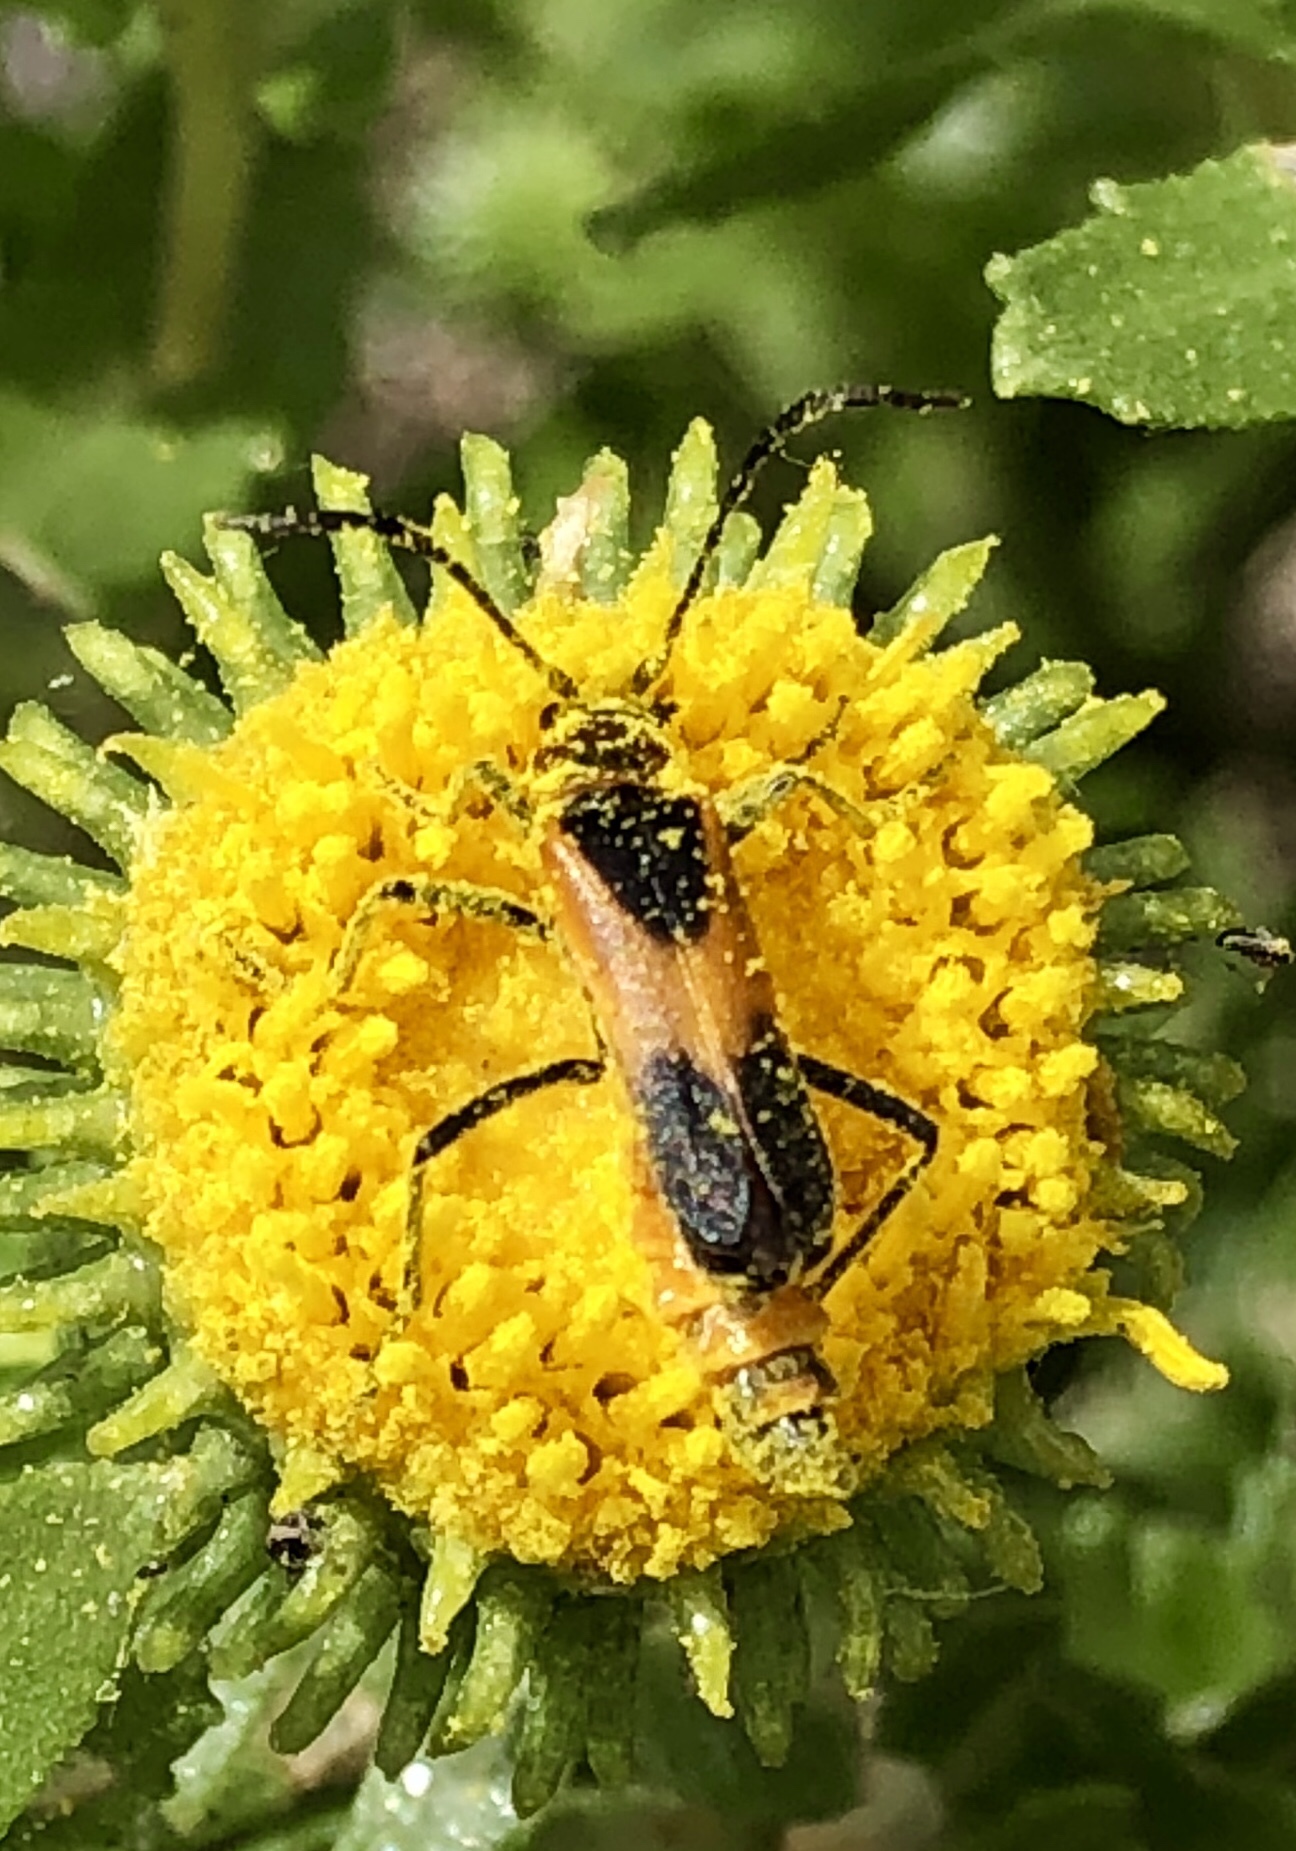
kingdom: Animalia
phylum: Arthropoda
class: Insecta
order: Coleoptera
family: Cantharidae
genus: Chauliognathus
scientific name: Chauliognathus basalis
